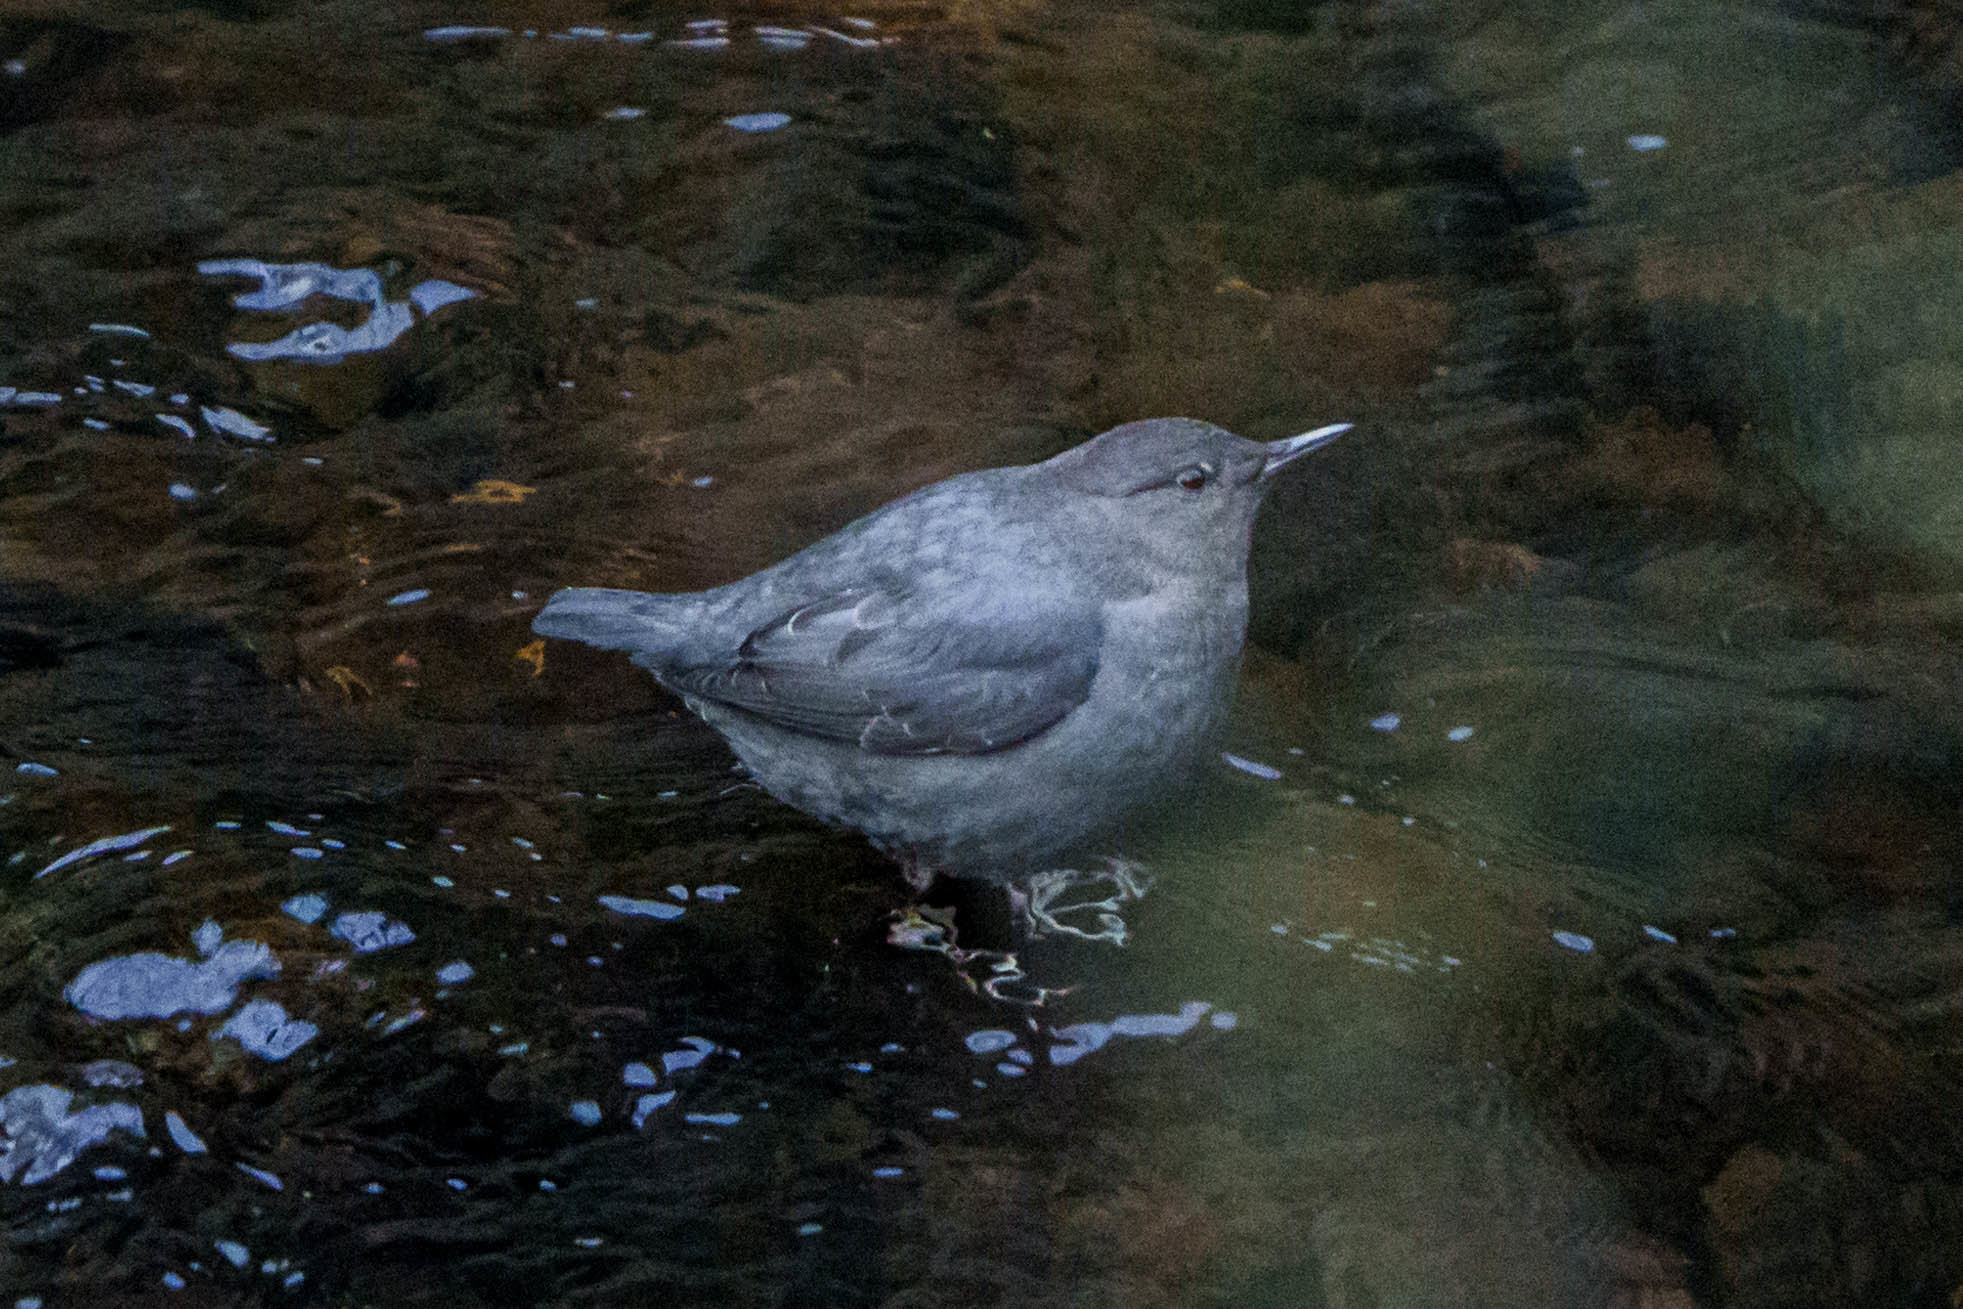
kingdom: Animalia
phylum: Chordata
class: Aves
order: Passeriformes
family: Cinclidae
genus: Cinclus
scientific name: Cinclus mexicanus
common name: American dipper
